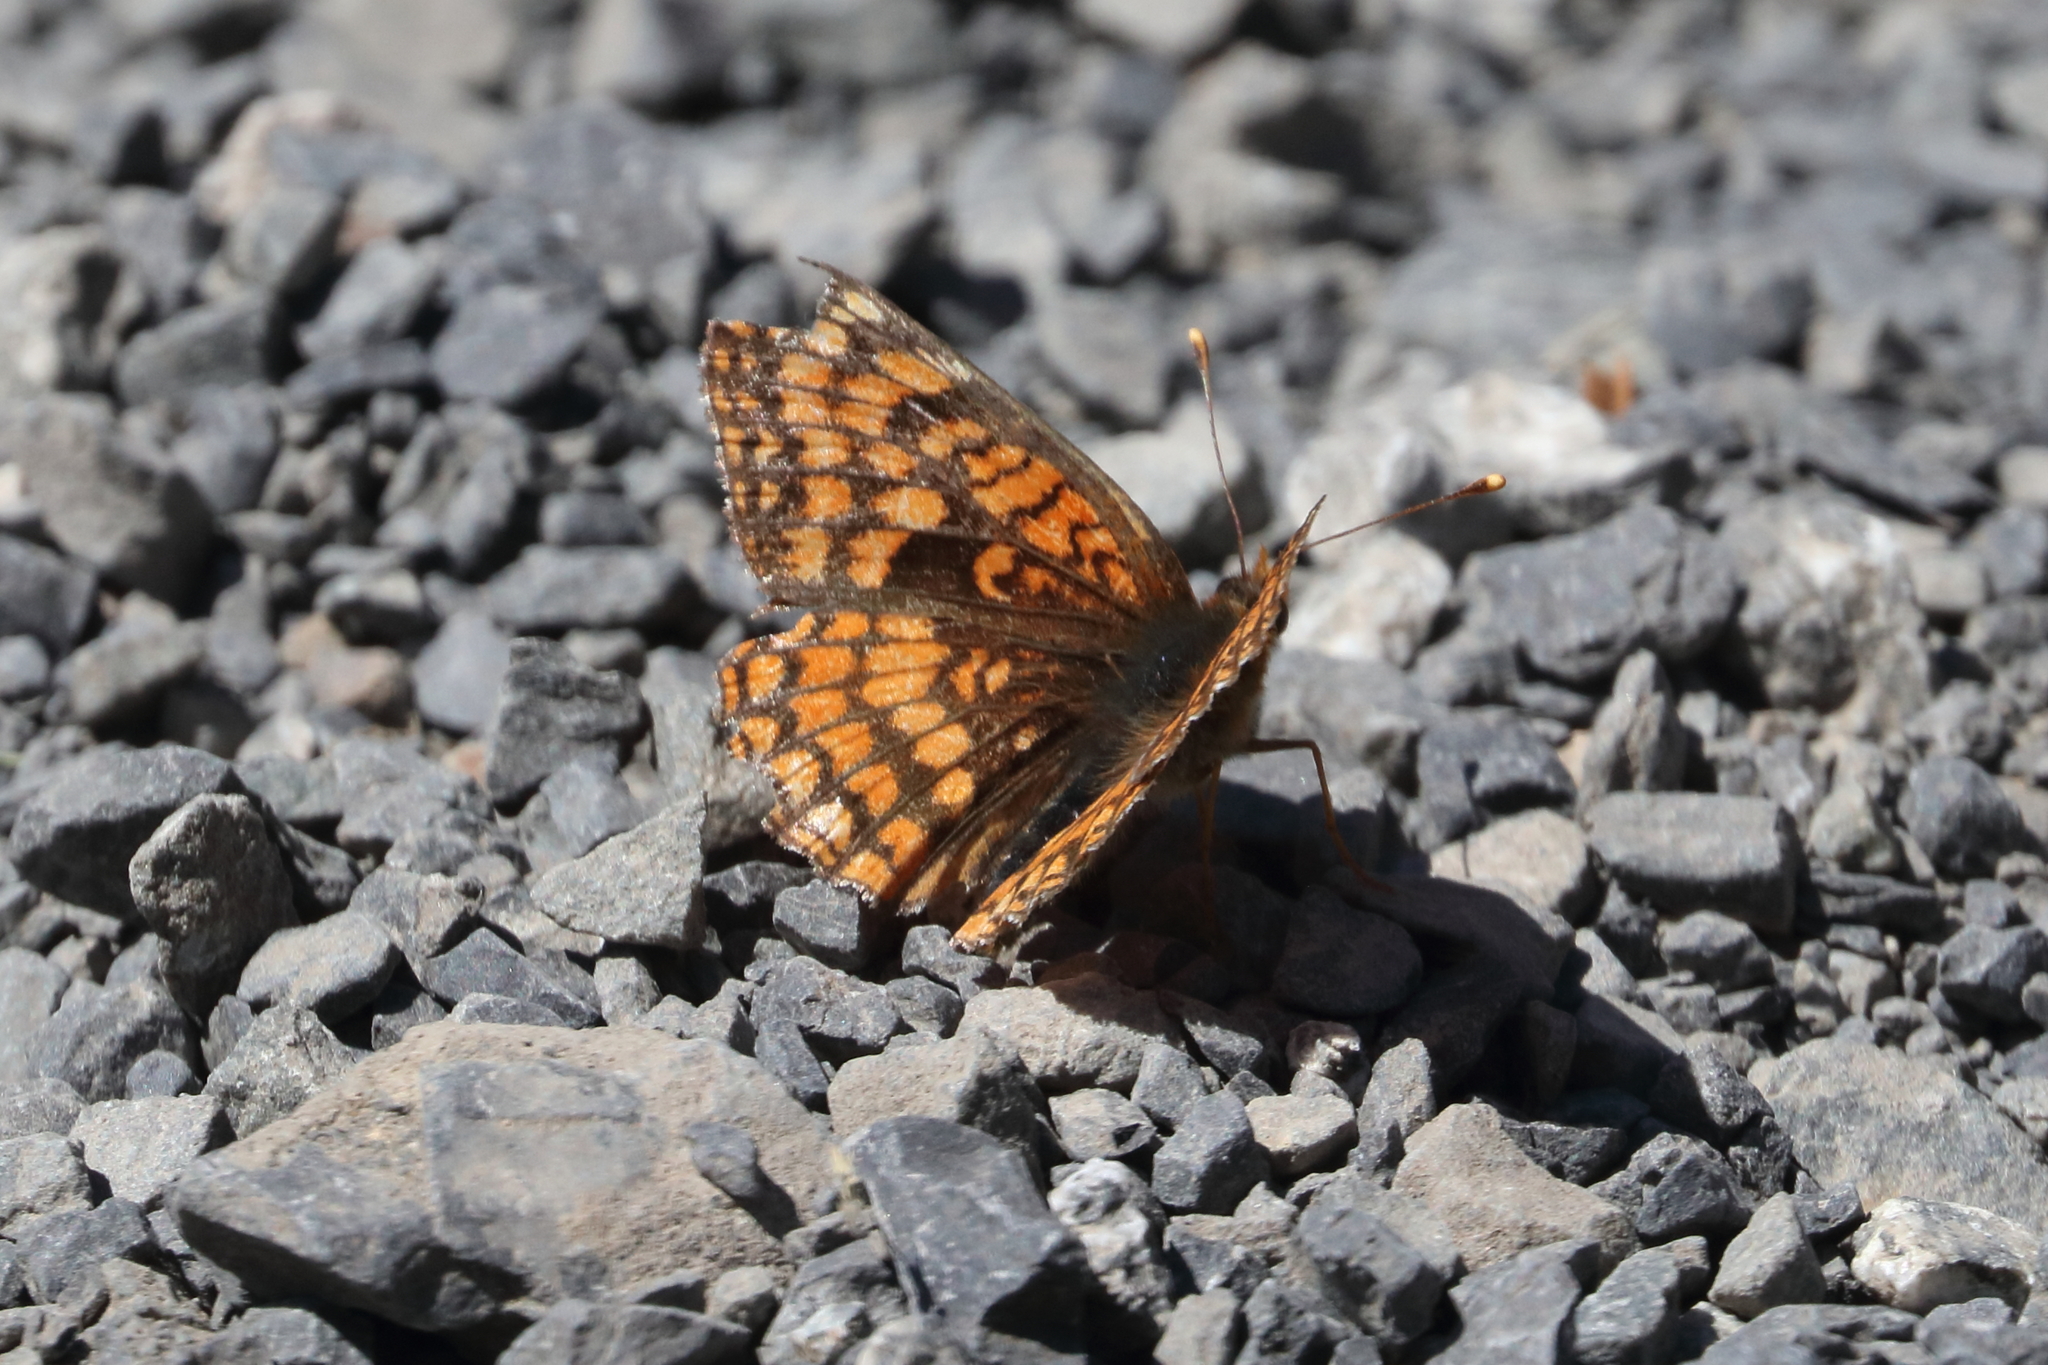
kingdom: Animalia
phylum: Arthropoda
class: Insecta
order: Lepidoptera
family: Nymphalidae
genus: Chlosyne
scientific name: Chlosyne palla
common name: Northern checkerspot
